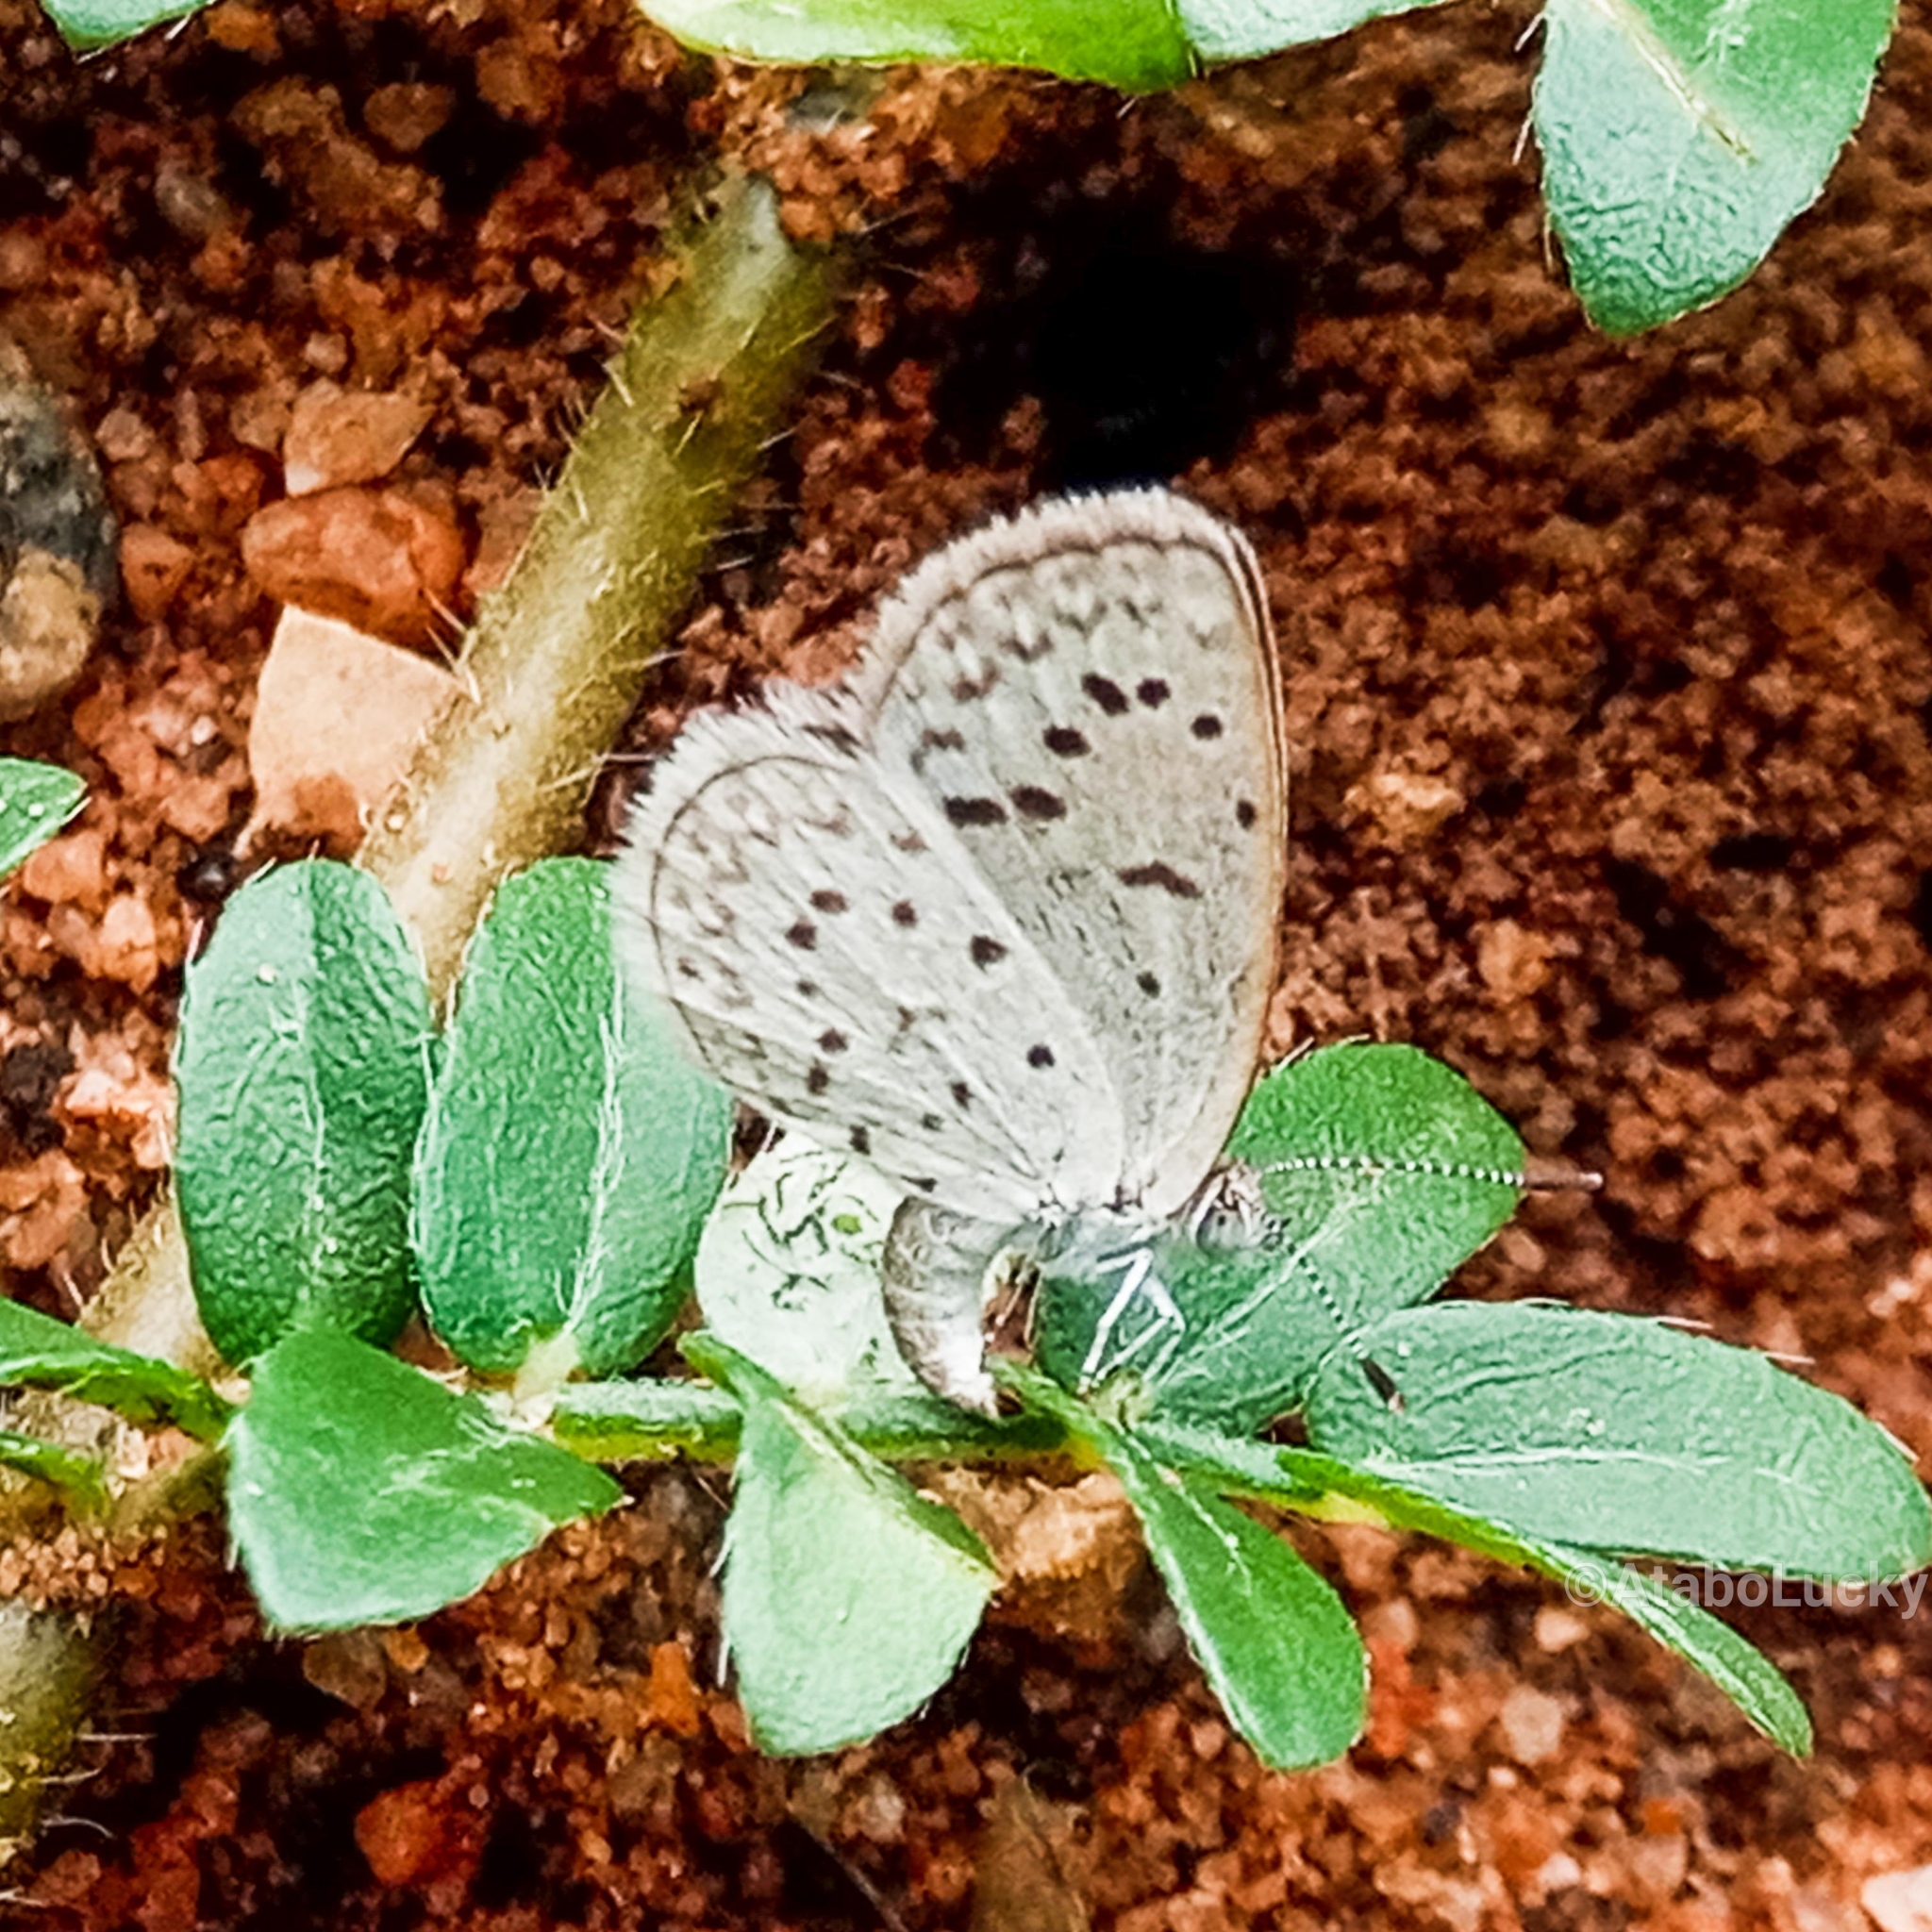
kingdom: Animalia
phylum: Arthropoda
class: Insecta
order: Lepidoptera
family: Lycaenidae
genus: Zizeeria
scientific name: Zizeeria knysna
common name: African grass blue
